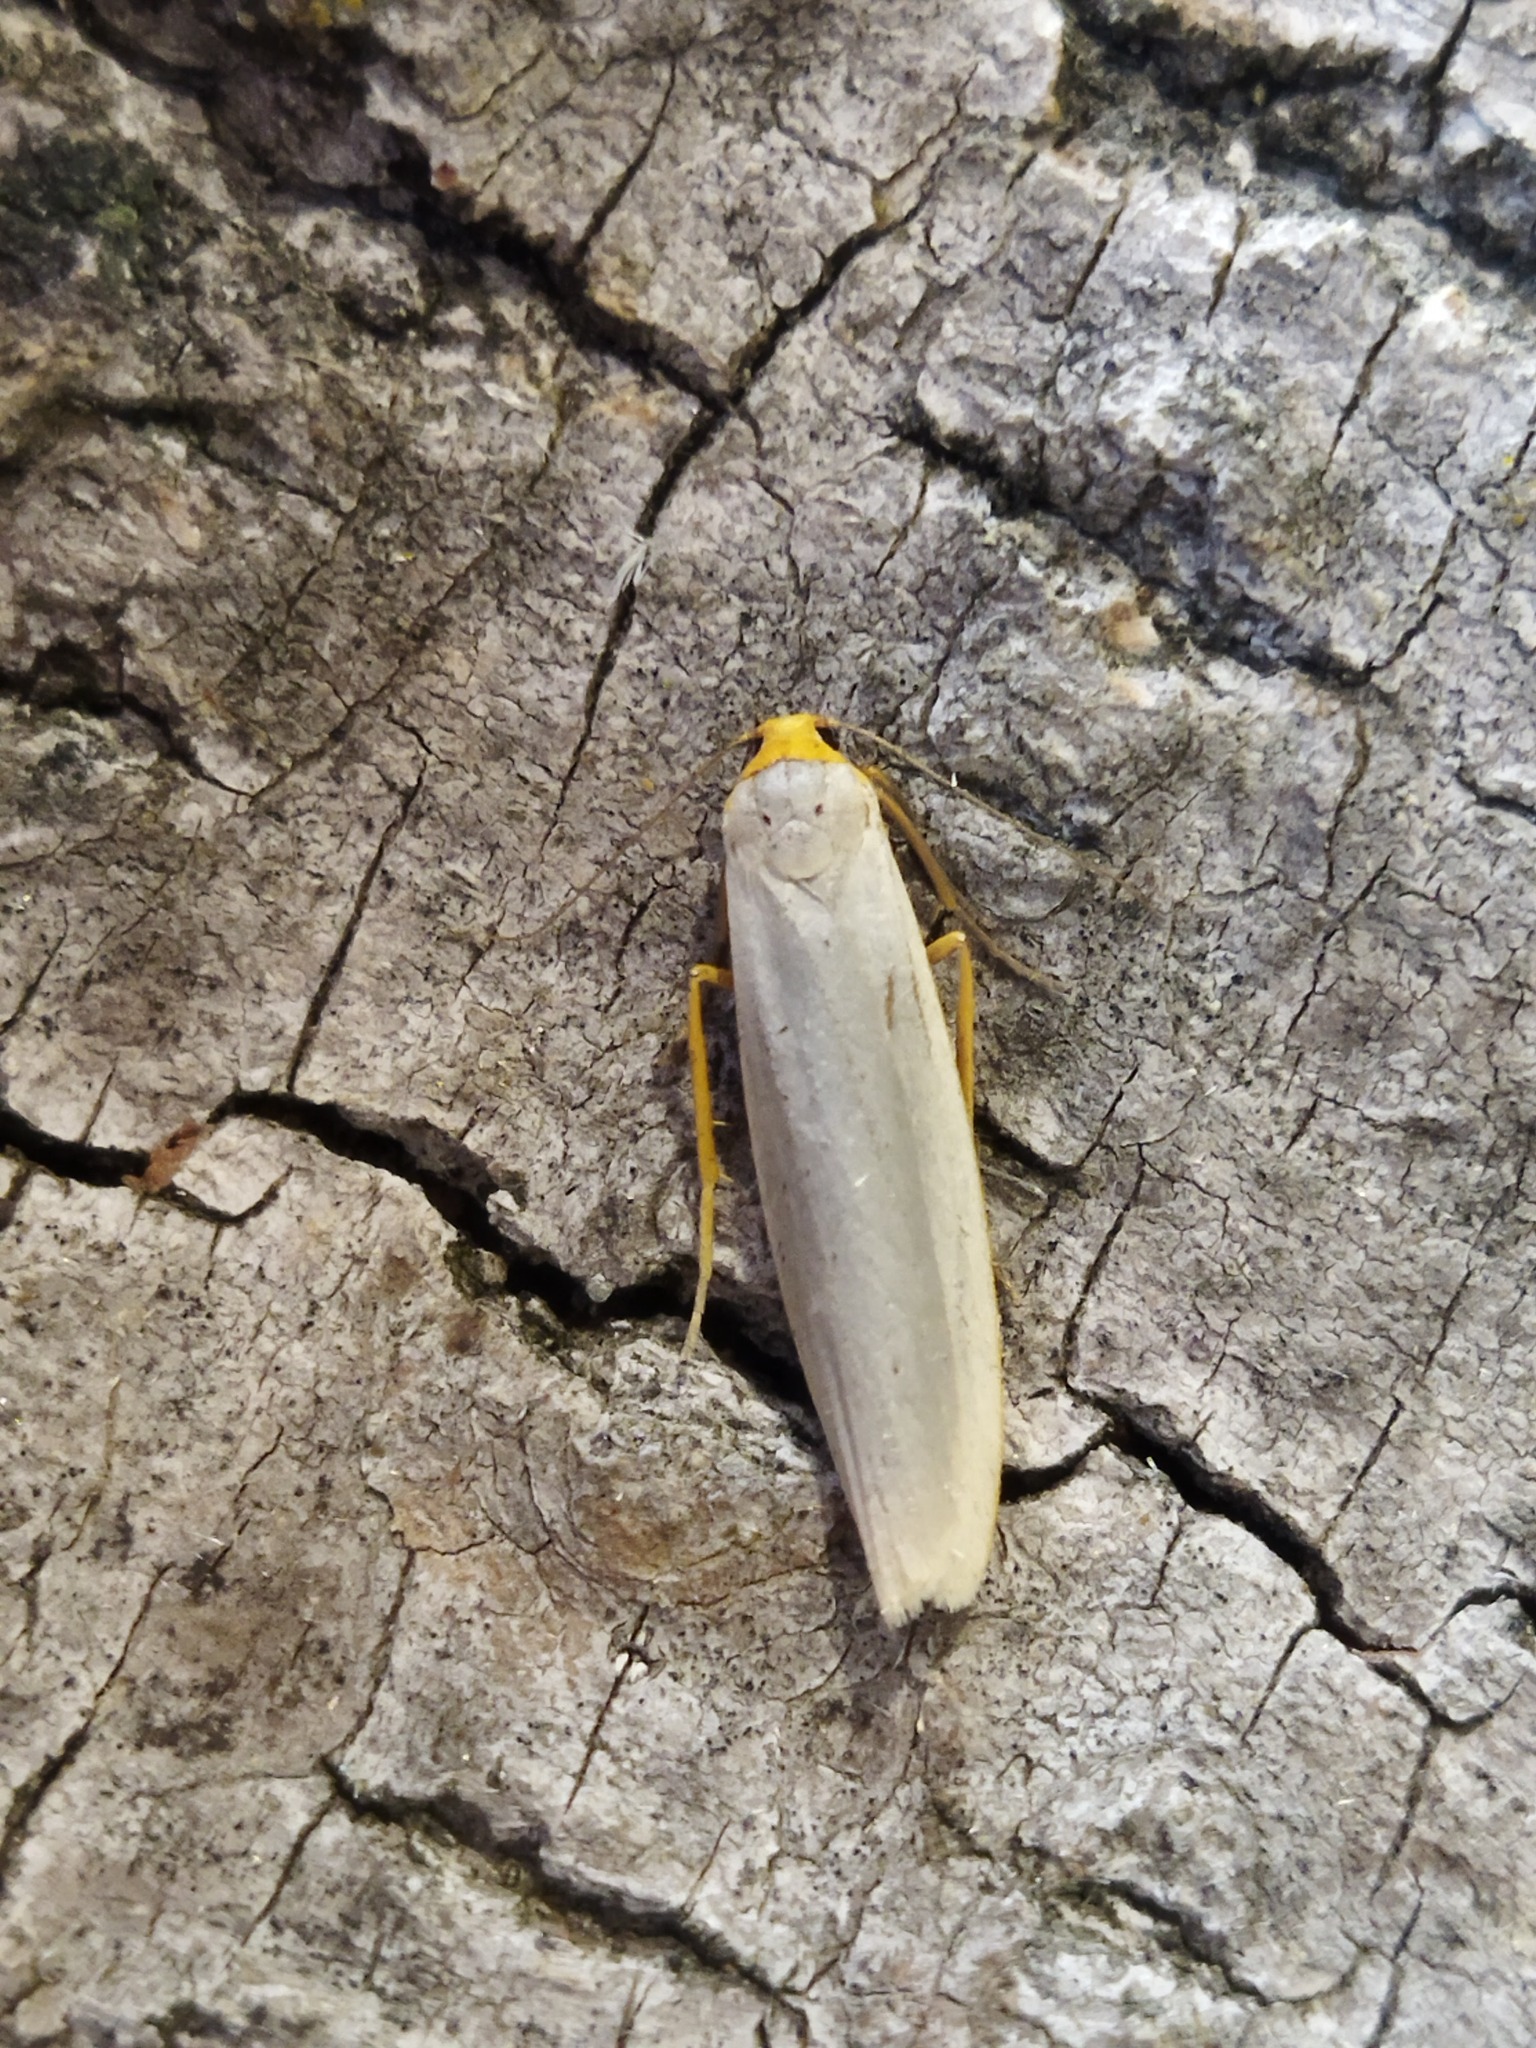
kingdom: Animalia
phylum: Arthropoda
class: Insecta
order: Lepidoptera
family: Erebidae
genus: Eilema
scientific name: Eilema caniola
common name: Hoary footman
